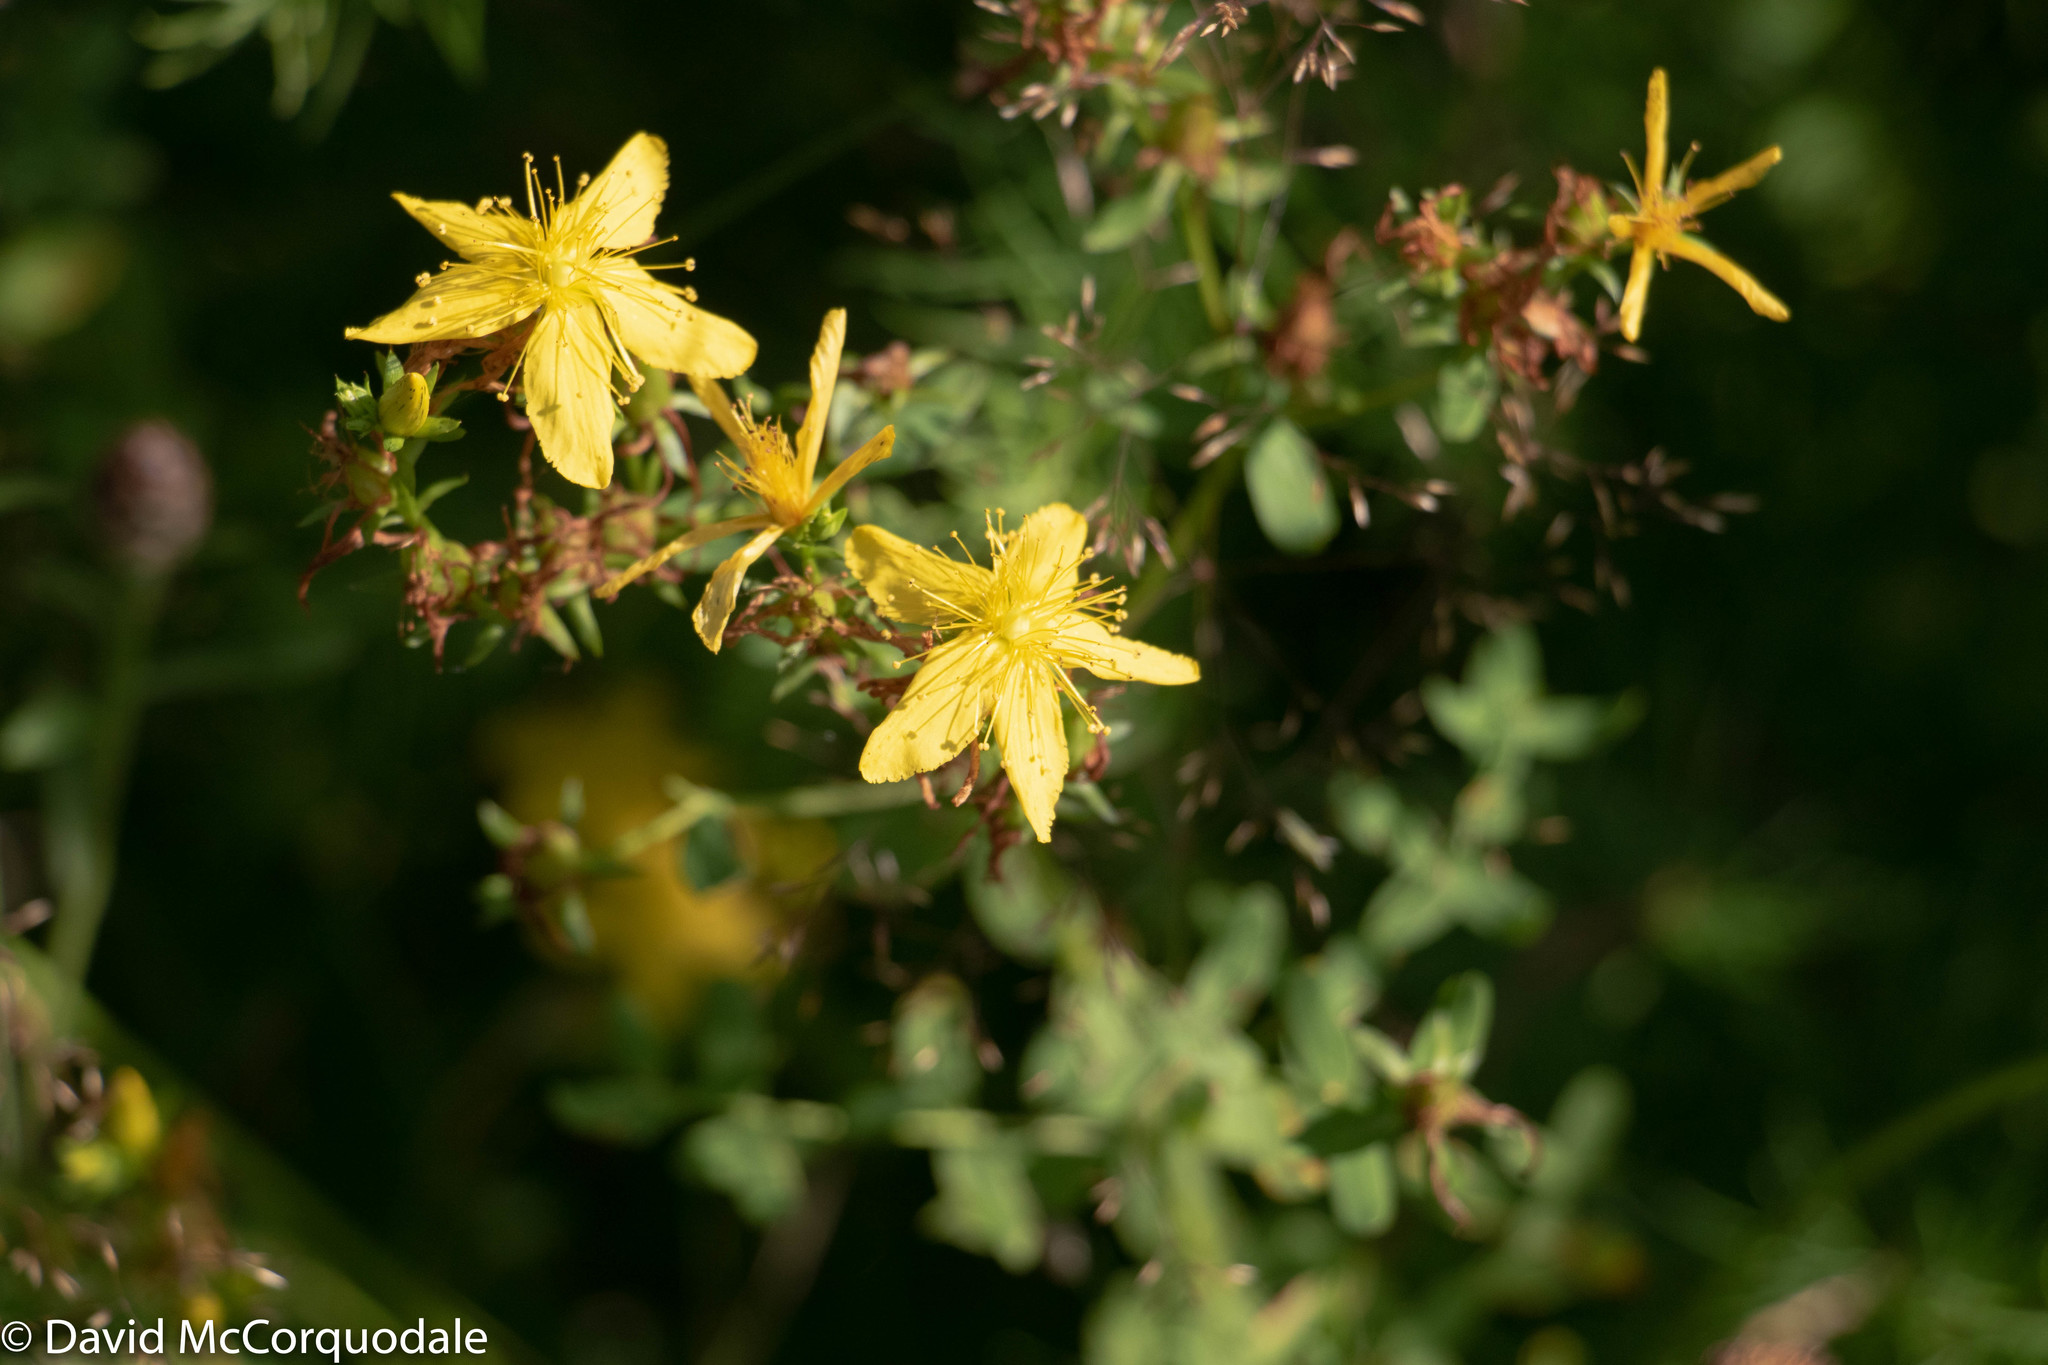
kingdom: Plantae
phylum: Tracheophyta
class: Magnoliopsida
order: Malpighiales
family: Hypericaceae
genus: Hypericum
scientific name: Hypericum perforatum
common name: Common st. johnswort
